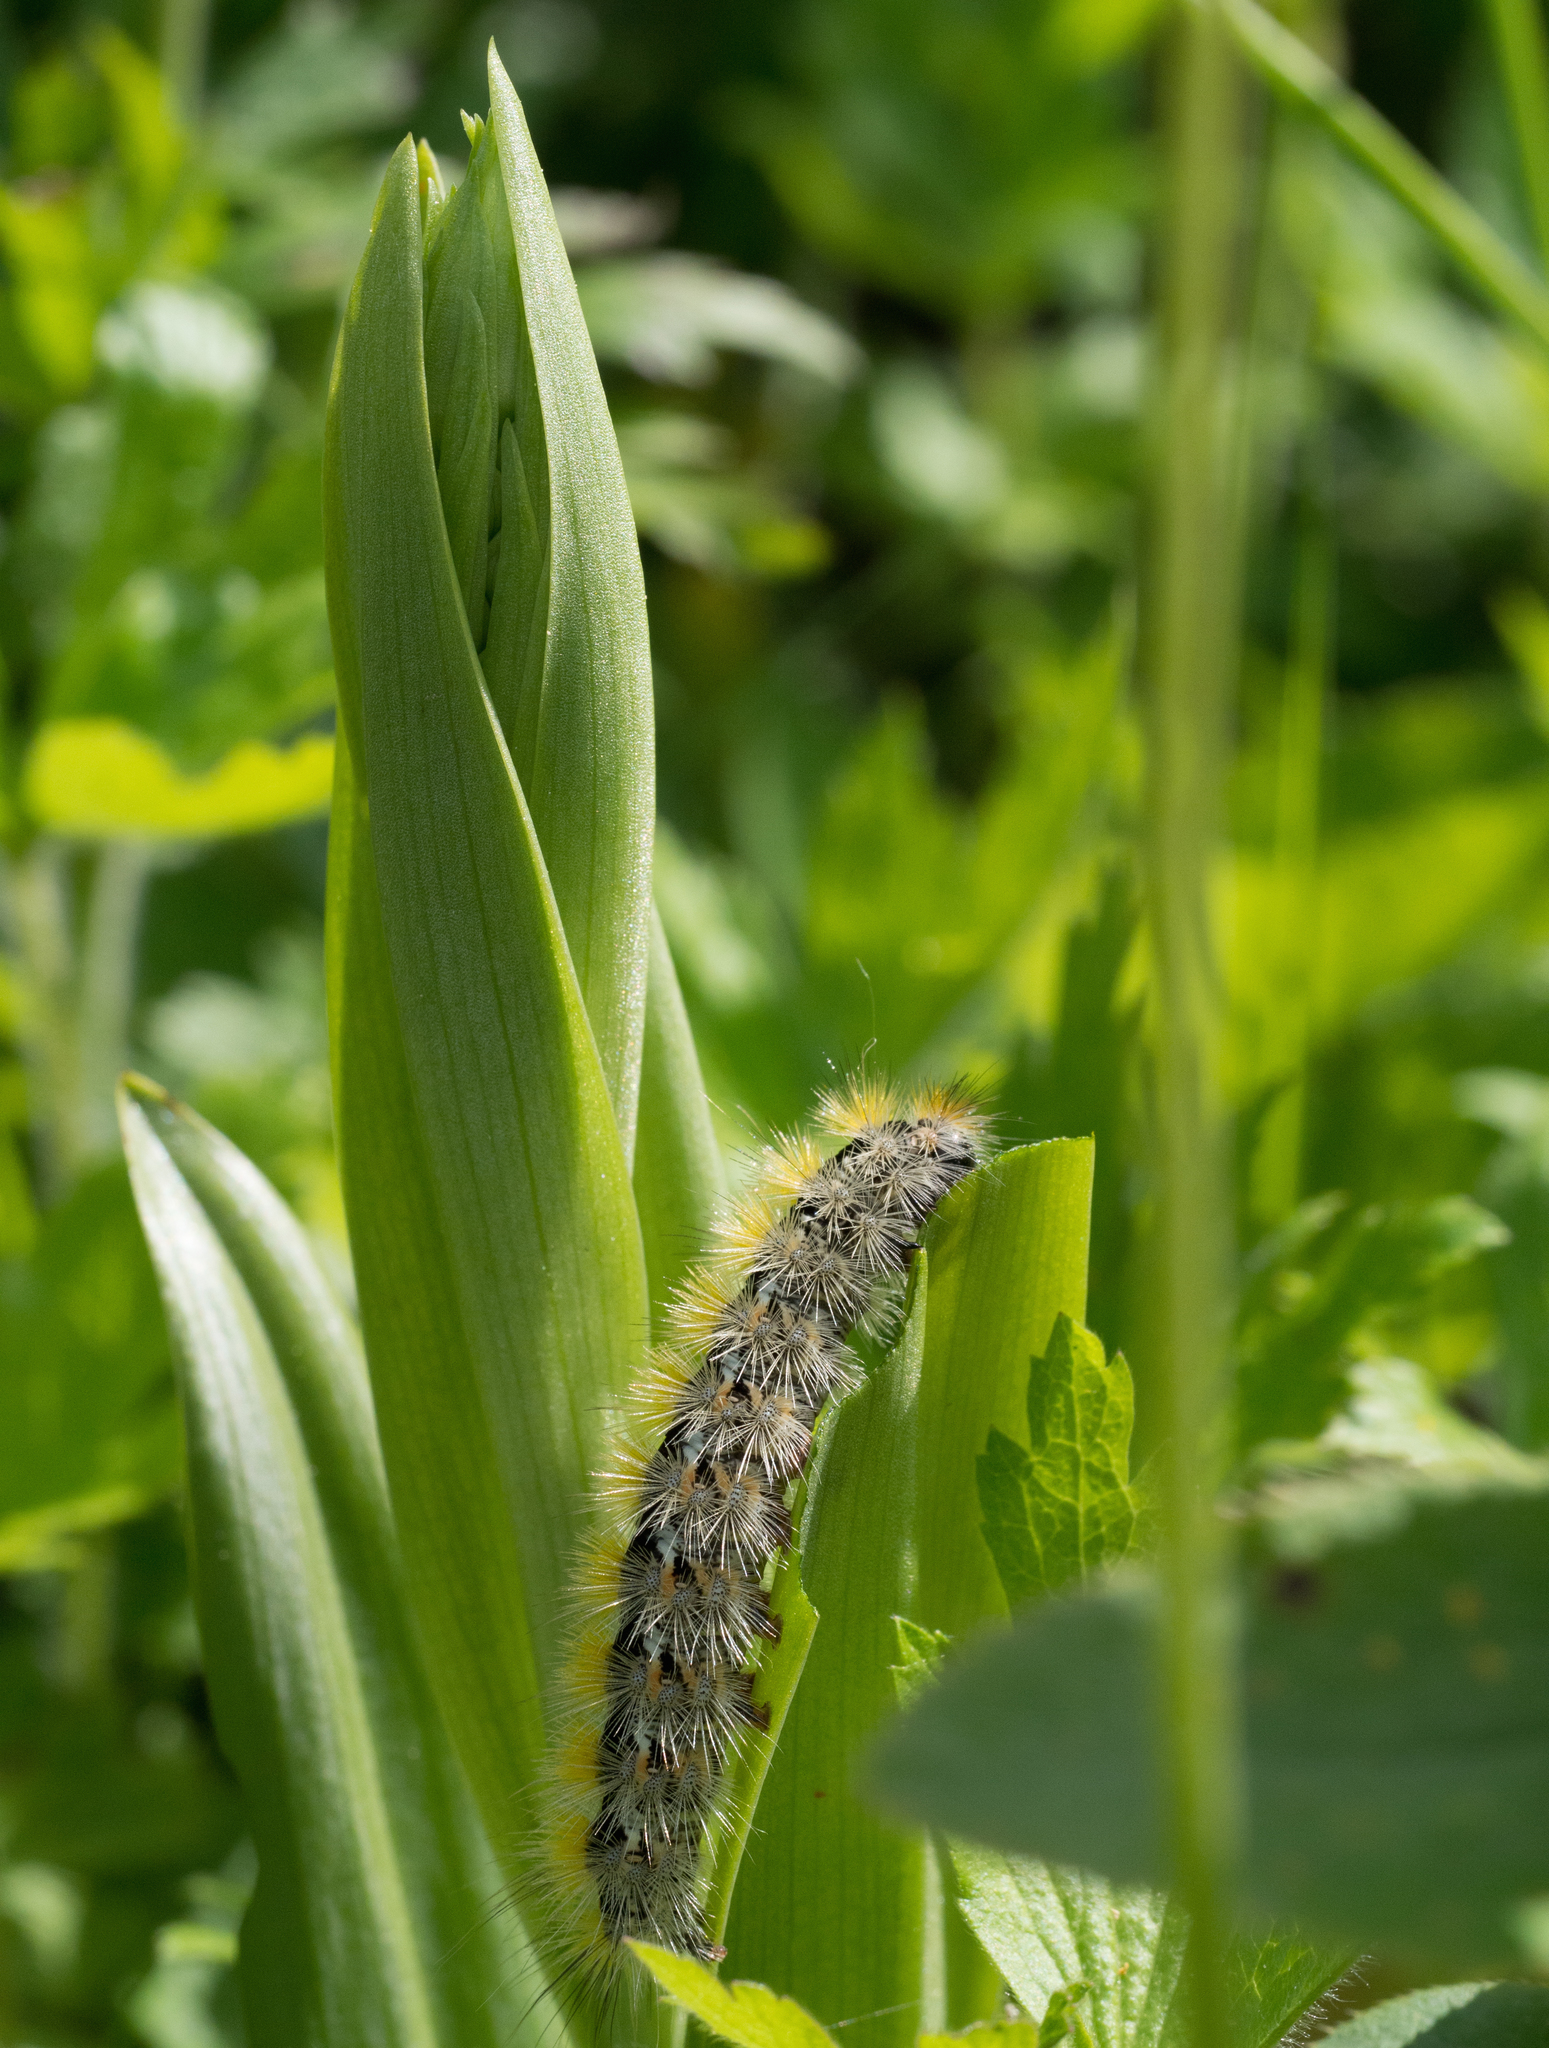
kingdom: Animalia
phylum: Arthropoda
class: Insecta
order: Lepidoptera
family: Erebidae
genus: Rhyparia
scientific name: Rhyparia purpurata
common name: Purple tiger
